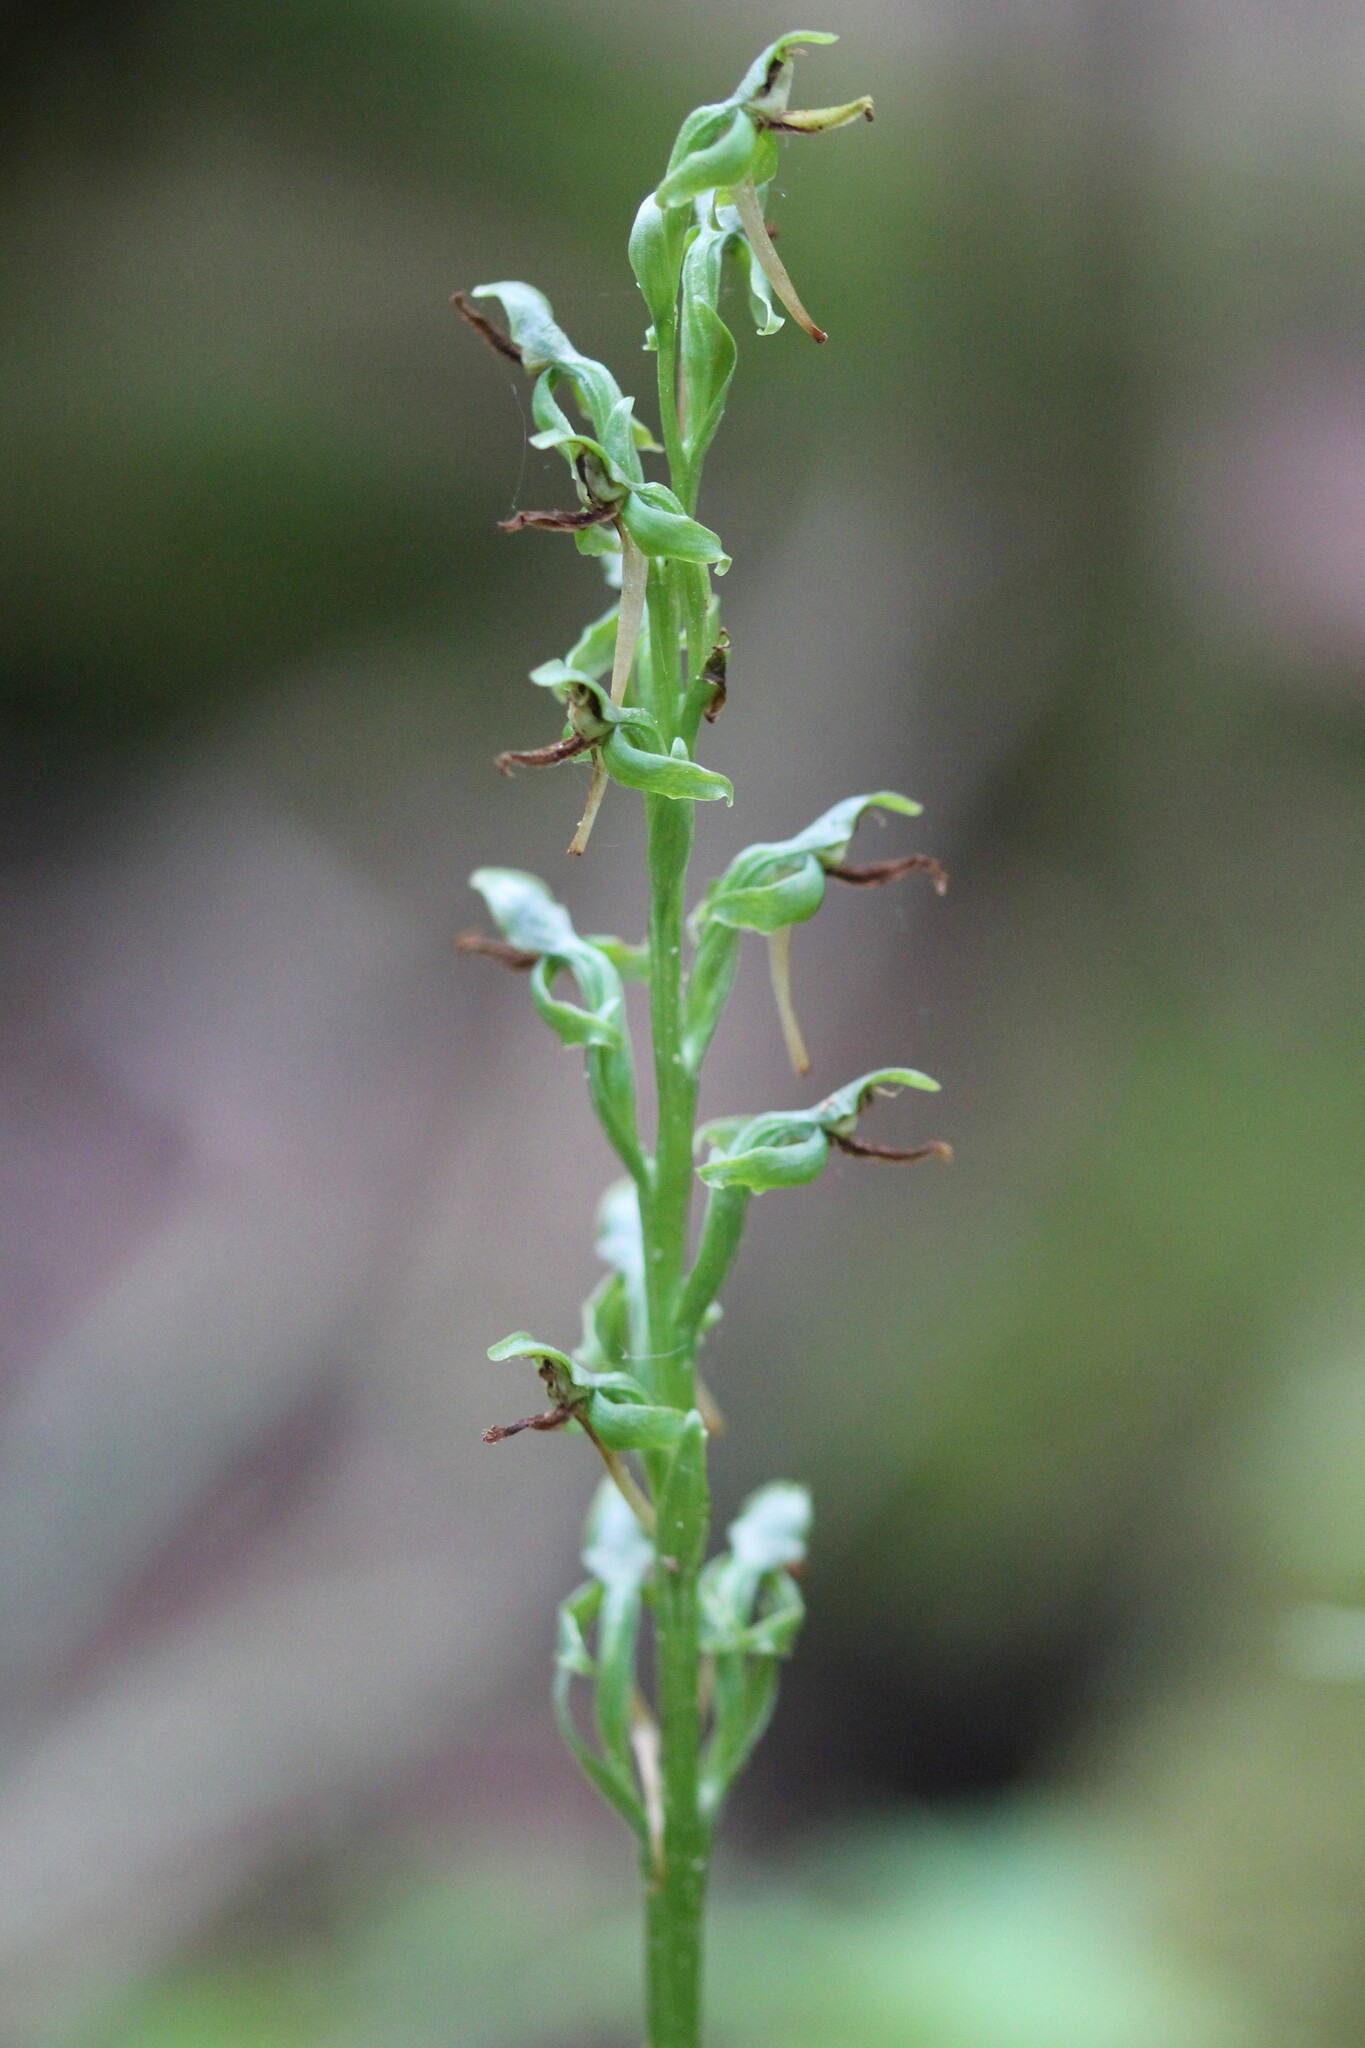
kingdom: Plantae
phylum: Tracheophyta
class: Liliopsida
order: Asparagales
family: Orchidaceae
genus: Platanthera
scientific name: Platanthera hookeri
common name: Hooker's orchid
